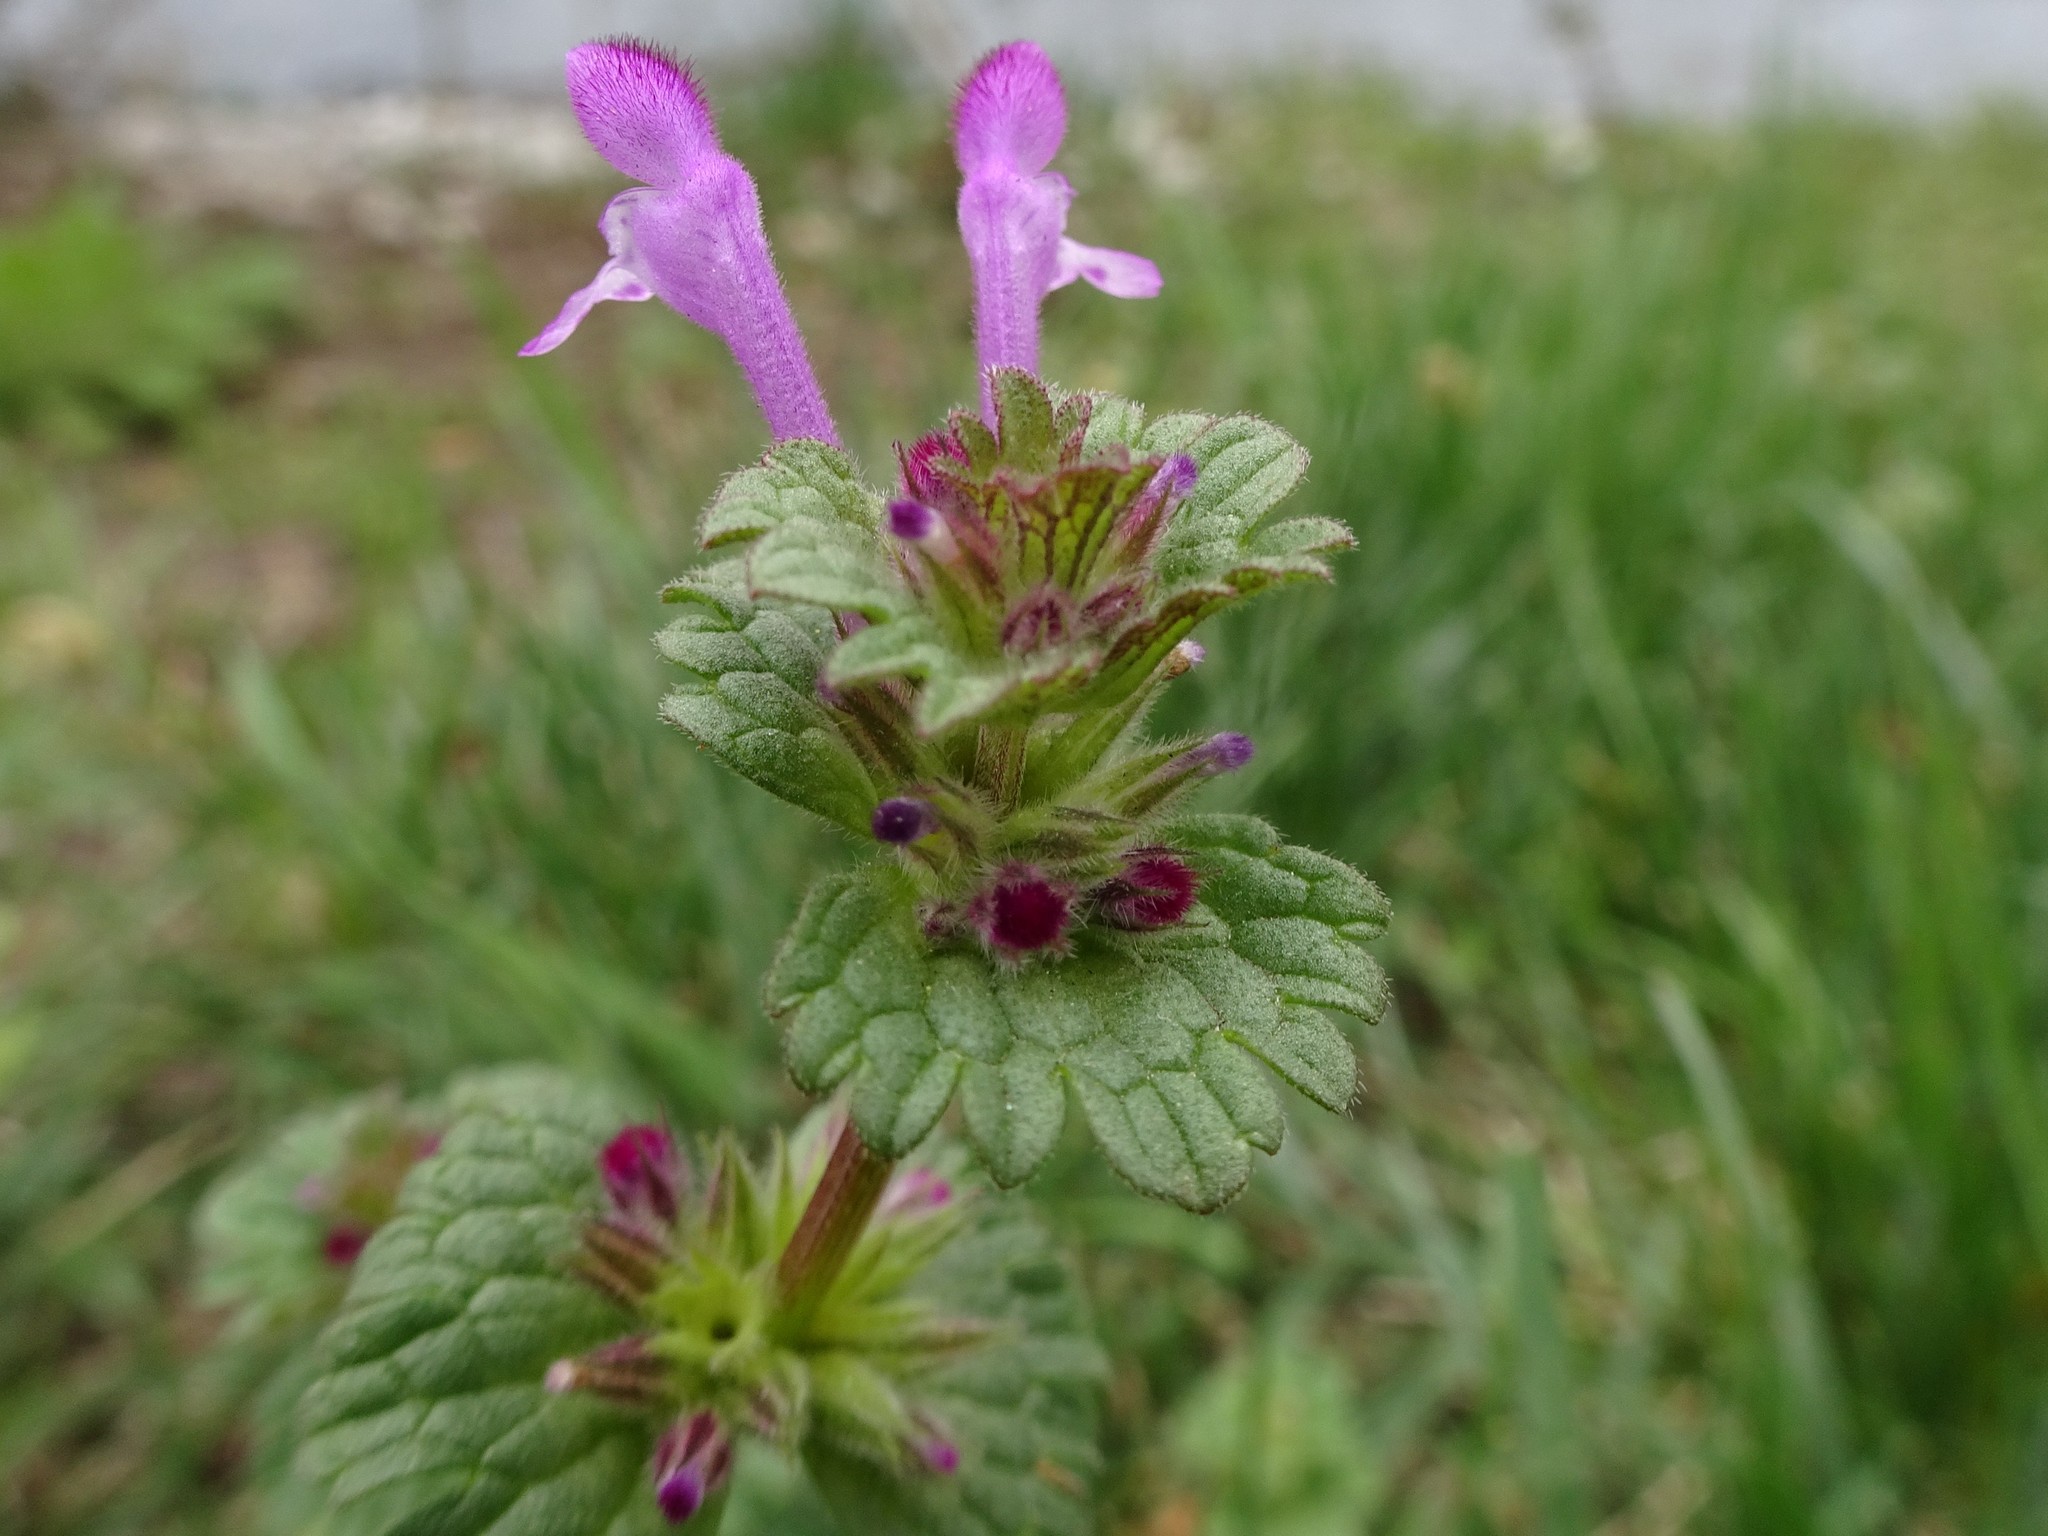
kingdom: Plantae
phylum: Tracheophyta
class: Magnoliopsida
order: Lamiales
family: Lamiaceae
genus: Lamium
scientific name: Lamium amplexicaule
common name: Henbit dead-nettle
